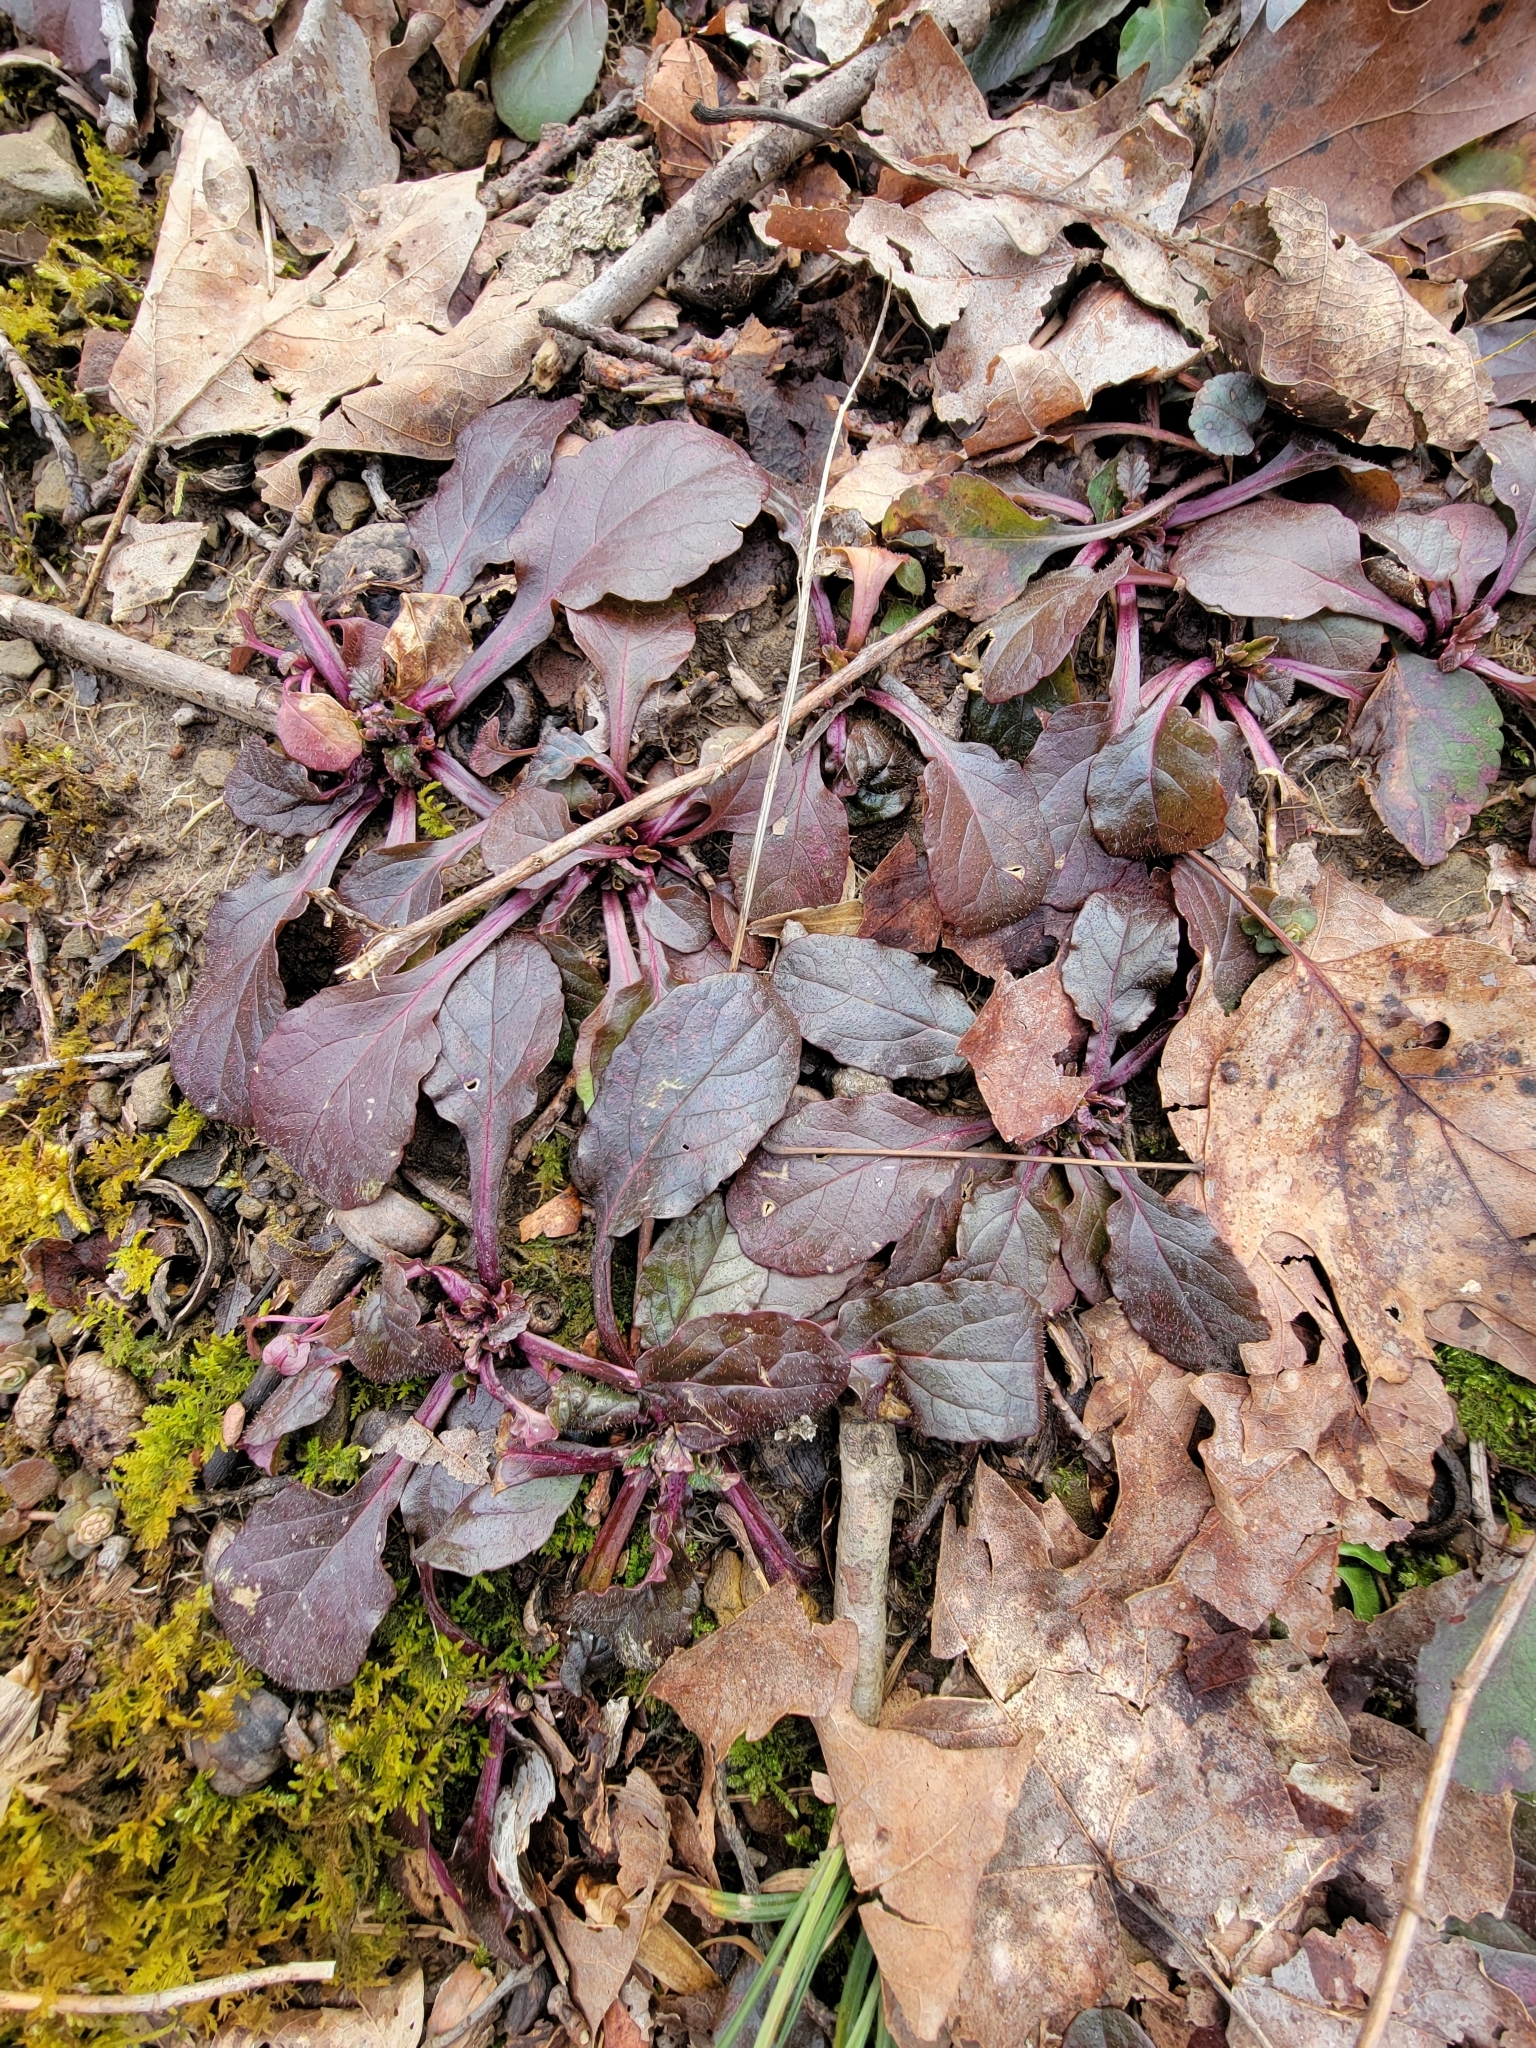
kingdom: Plantae
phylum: Tracheophyta
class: Magnoliopsida
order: Lamiales
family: Lamiaceae
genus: Ajuga
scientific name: Ajuga reptans
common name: Bugle
